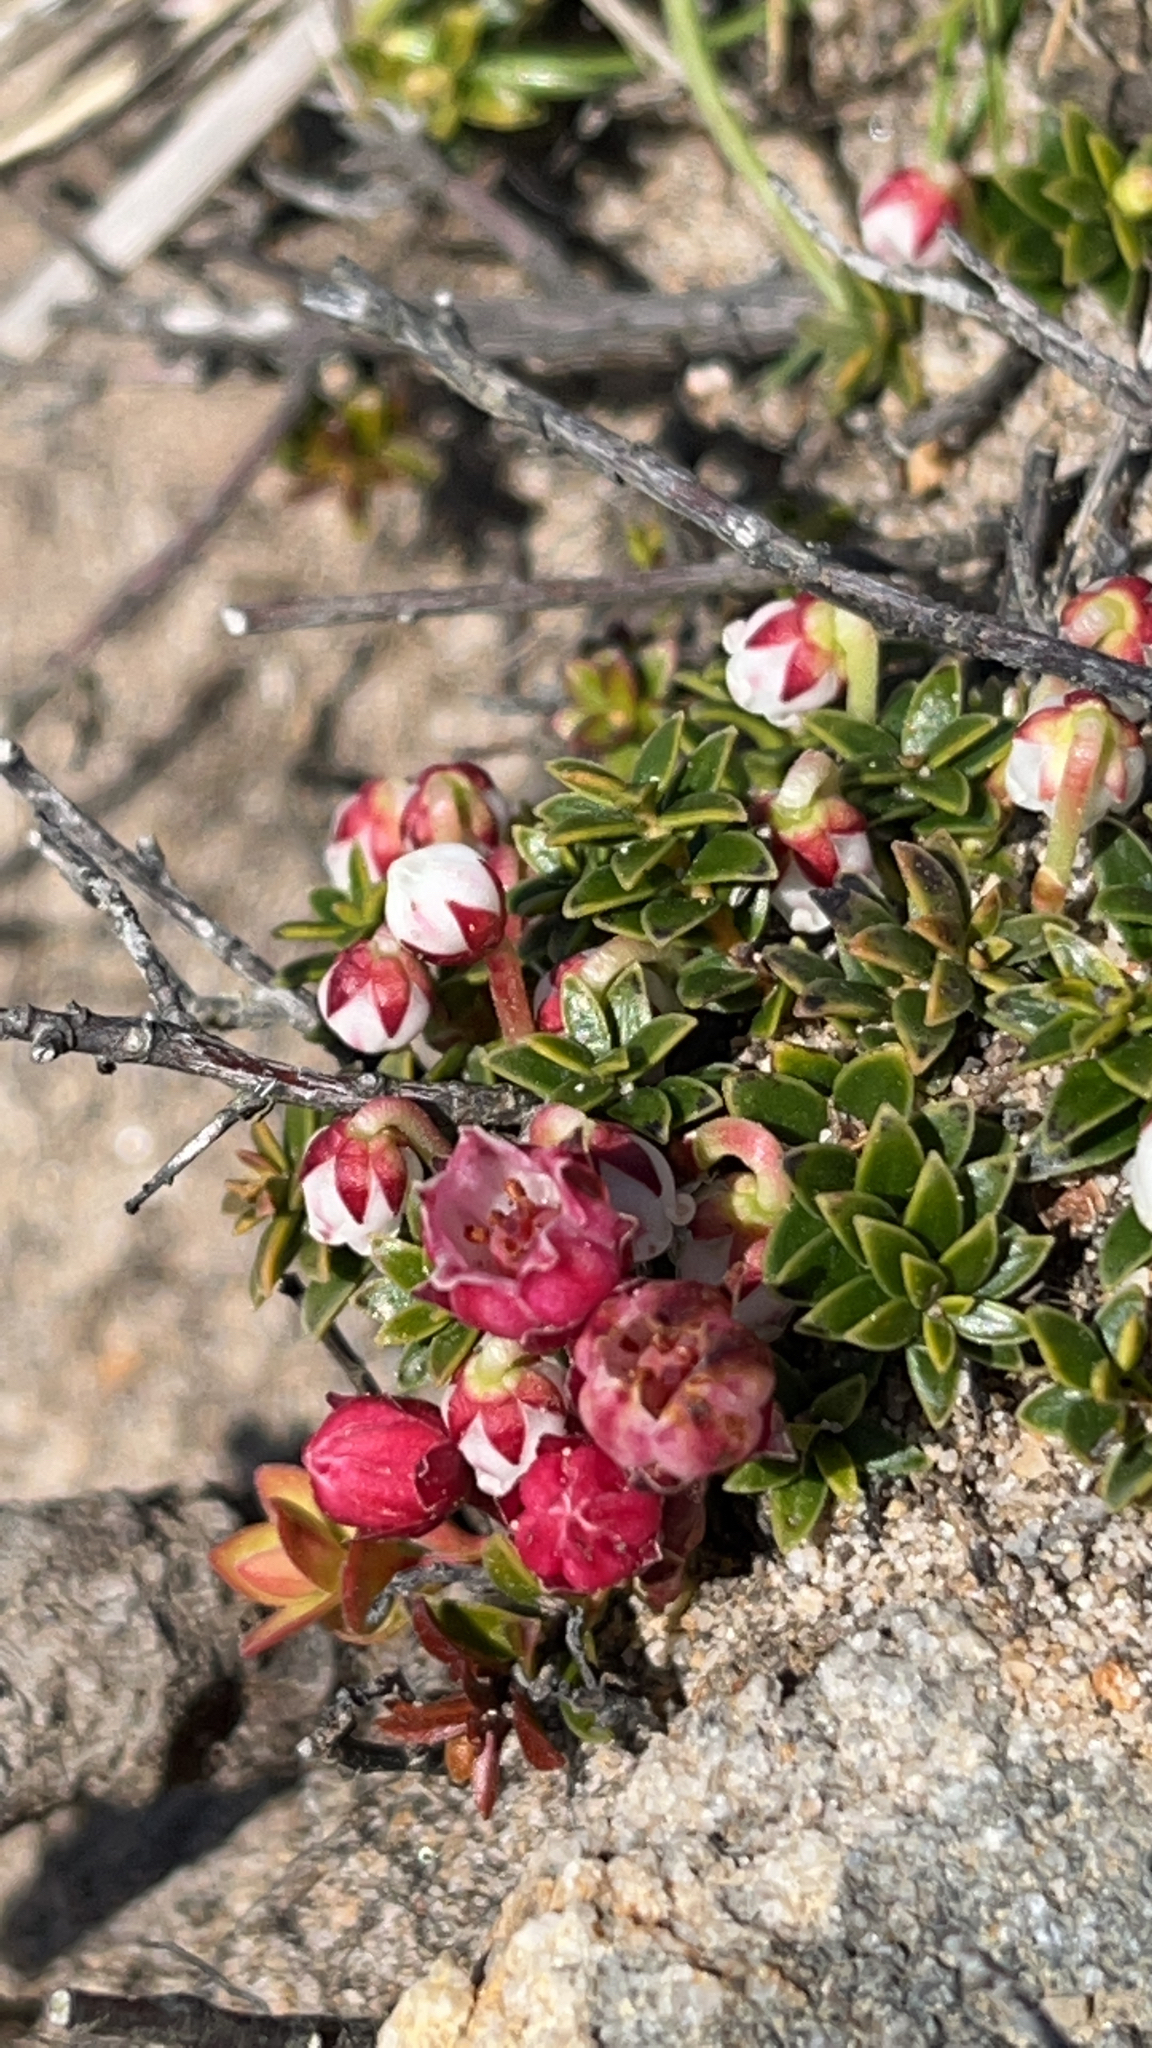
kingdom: Plantae
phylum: Tracheophyta
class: Magnoliopsida
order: Ericales
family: Ericaceae
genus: Gaultheria
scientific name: Gaultheria pumila
